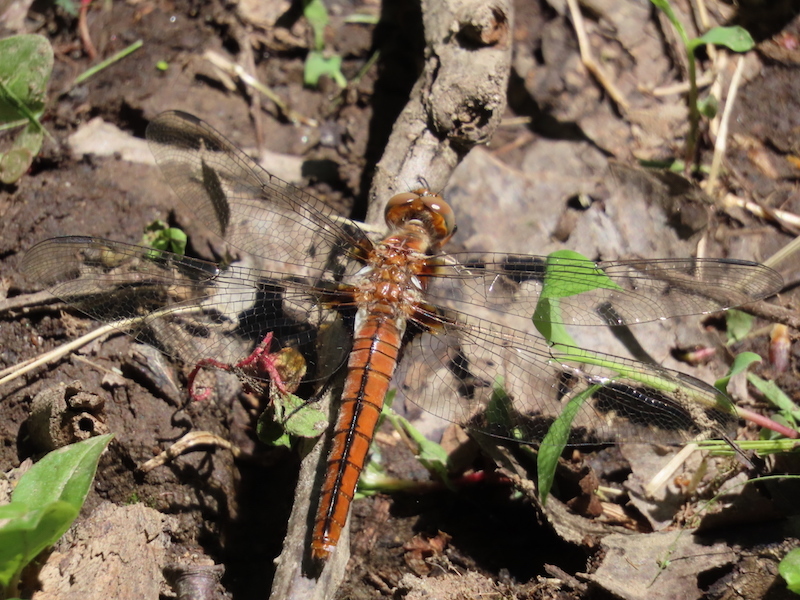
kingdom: Animalia
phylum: Arthropoda
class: Insecta
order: Odonata
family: Libellulidae
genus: Ladona
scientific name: Ladona julia
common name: Chalk-fronted corporal
